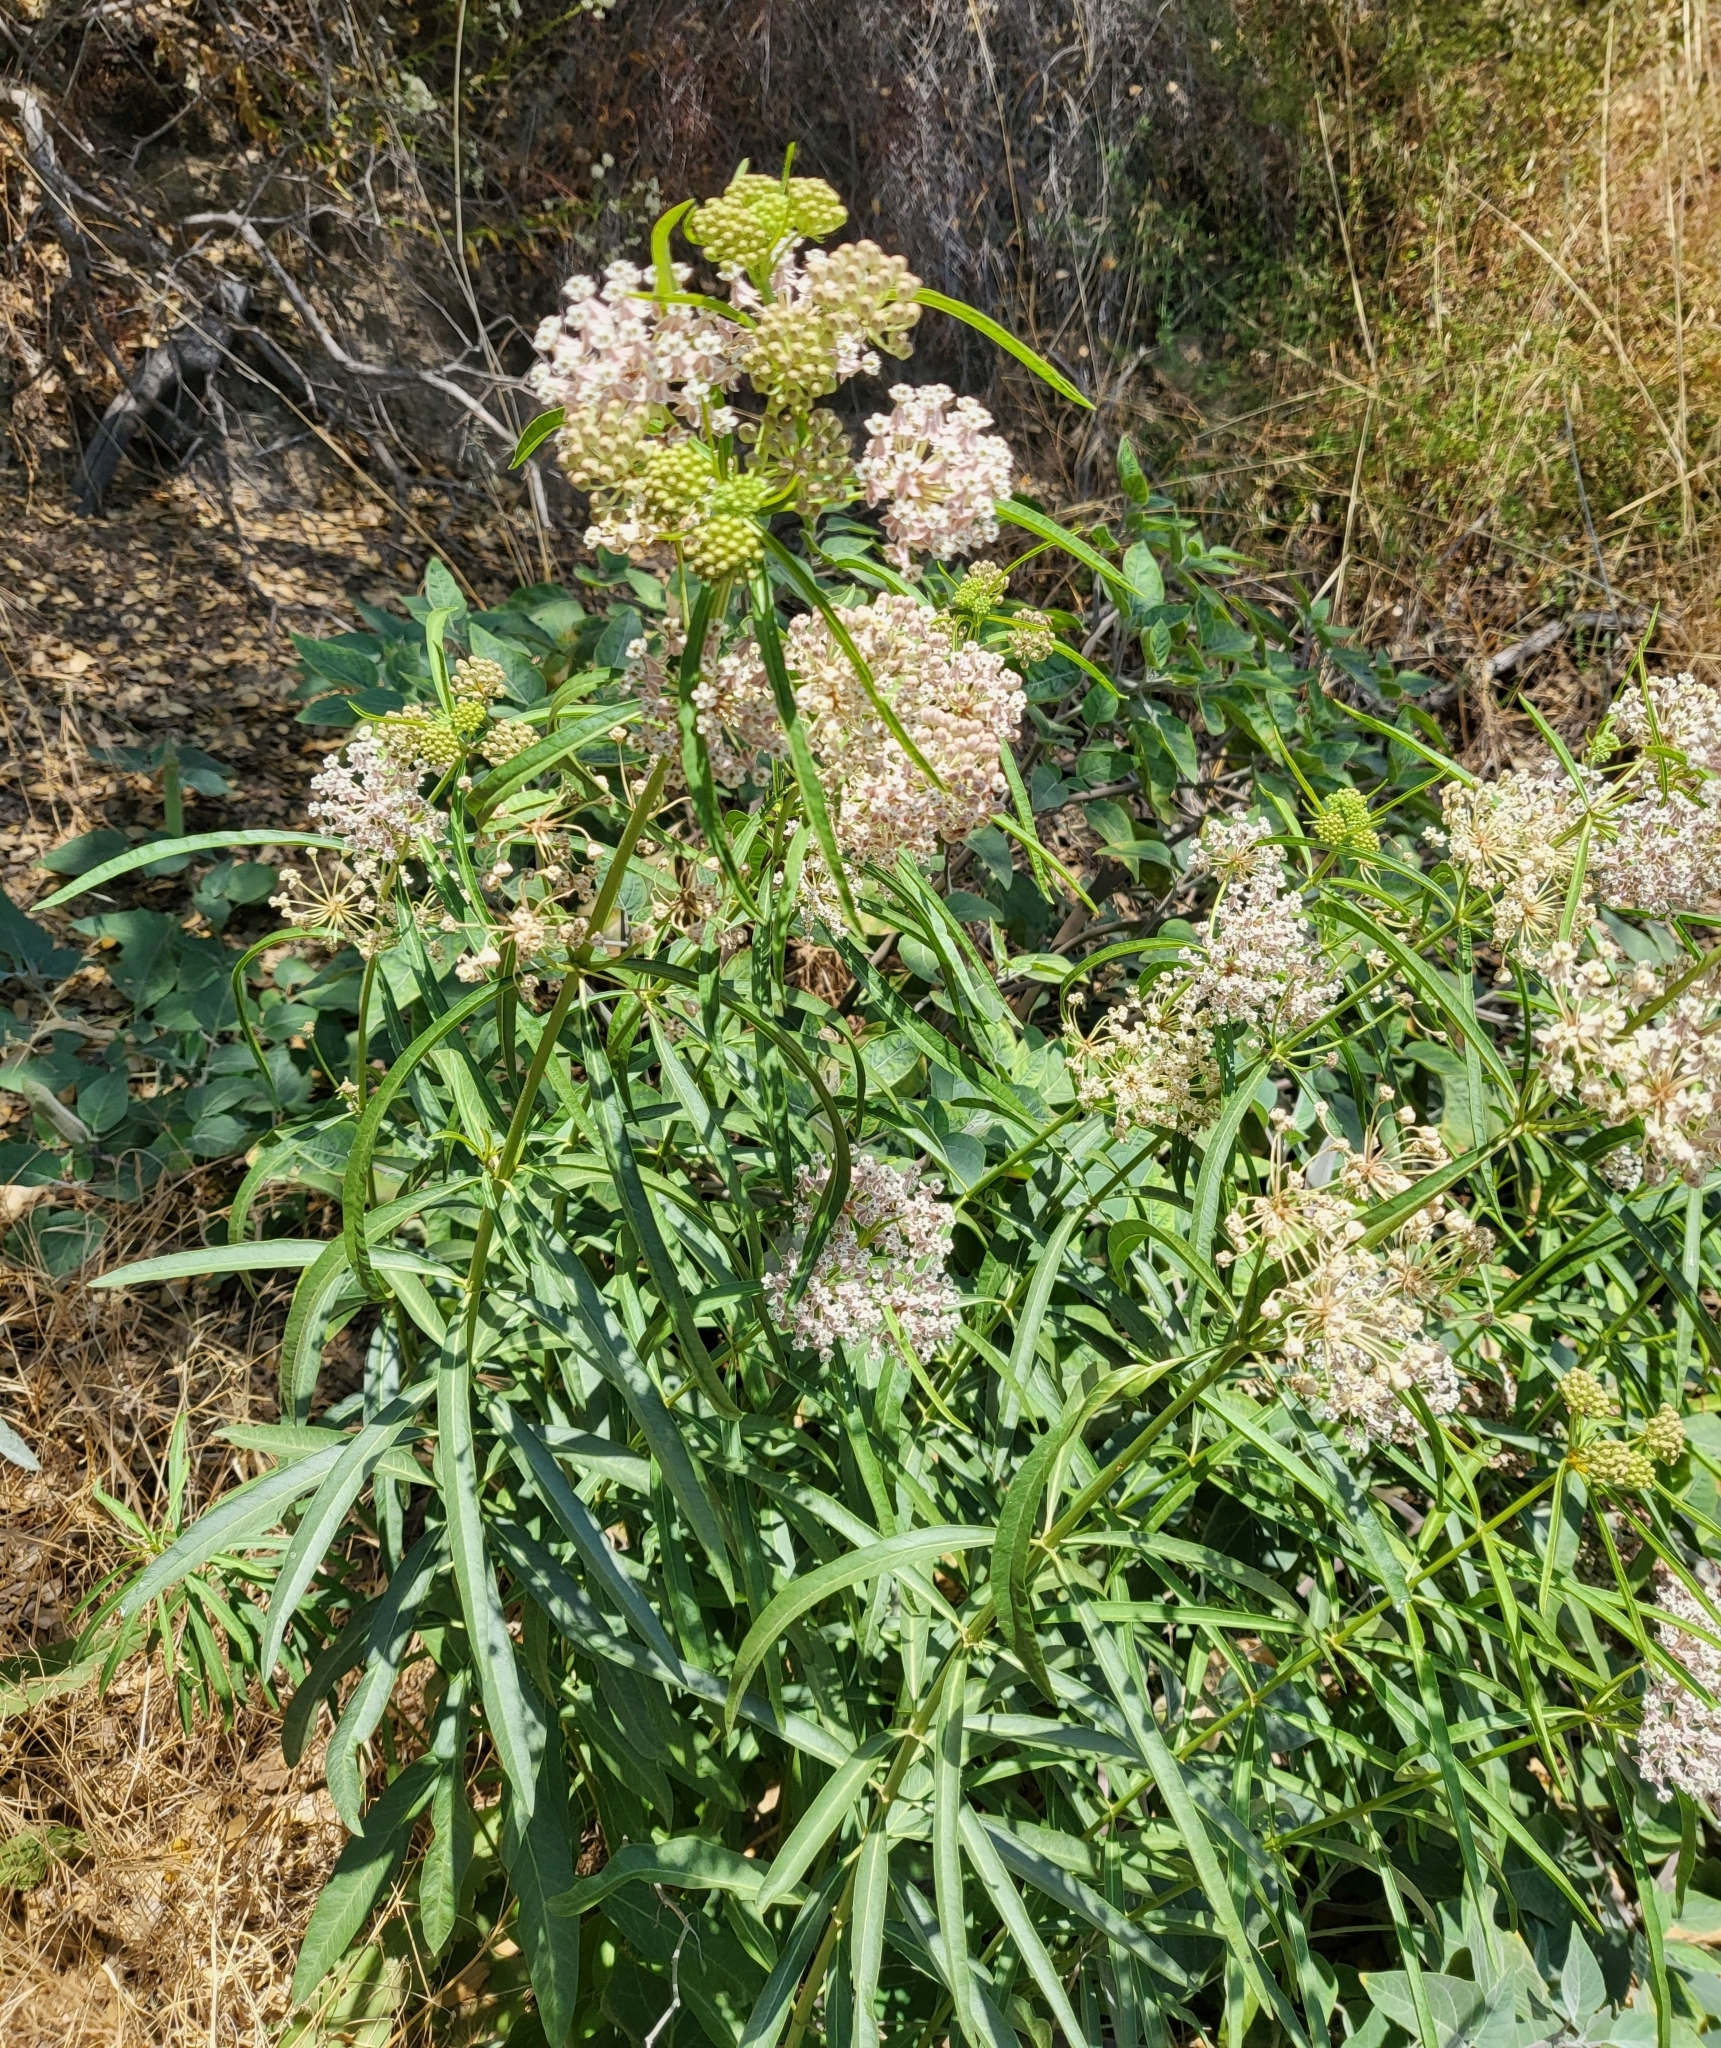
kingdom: Plantae
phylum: Tracheophyta
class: Magnoliopsida
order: Gentianales
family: Apocynaceae
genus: Asclepias
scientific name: Asclepias fascicularis
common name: Mexican milkweed
